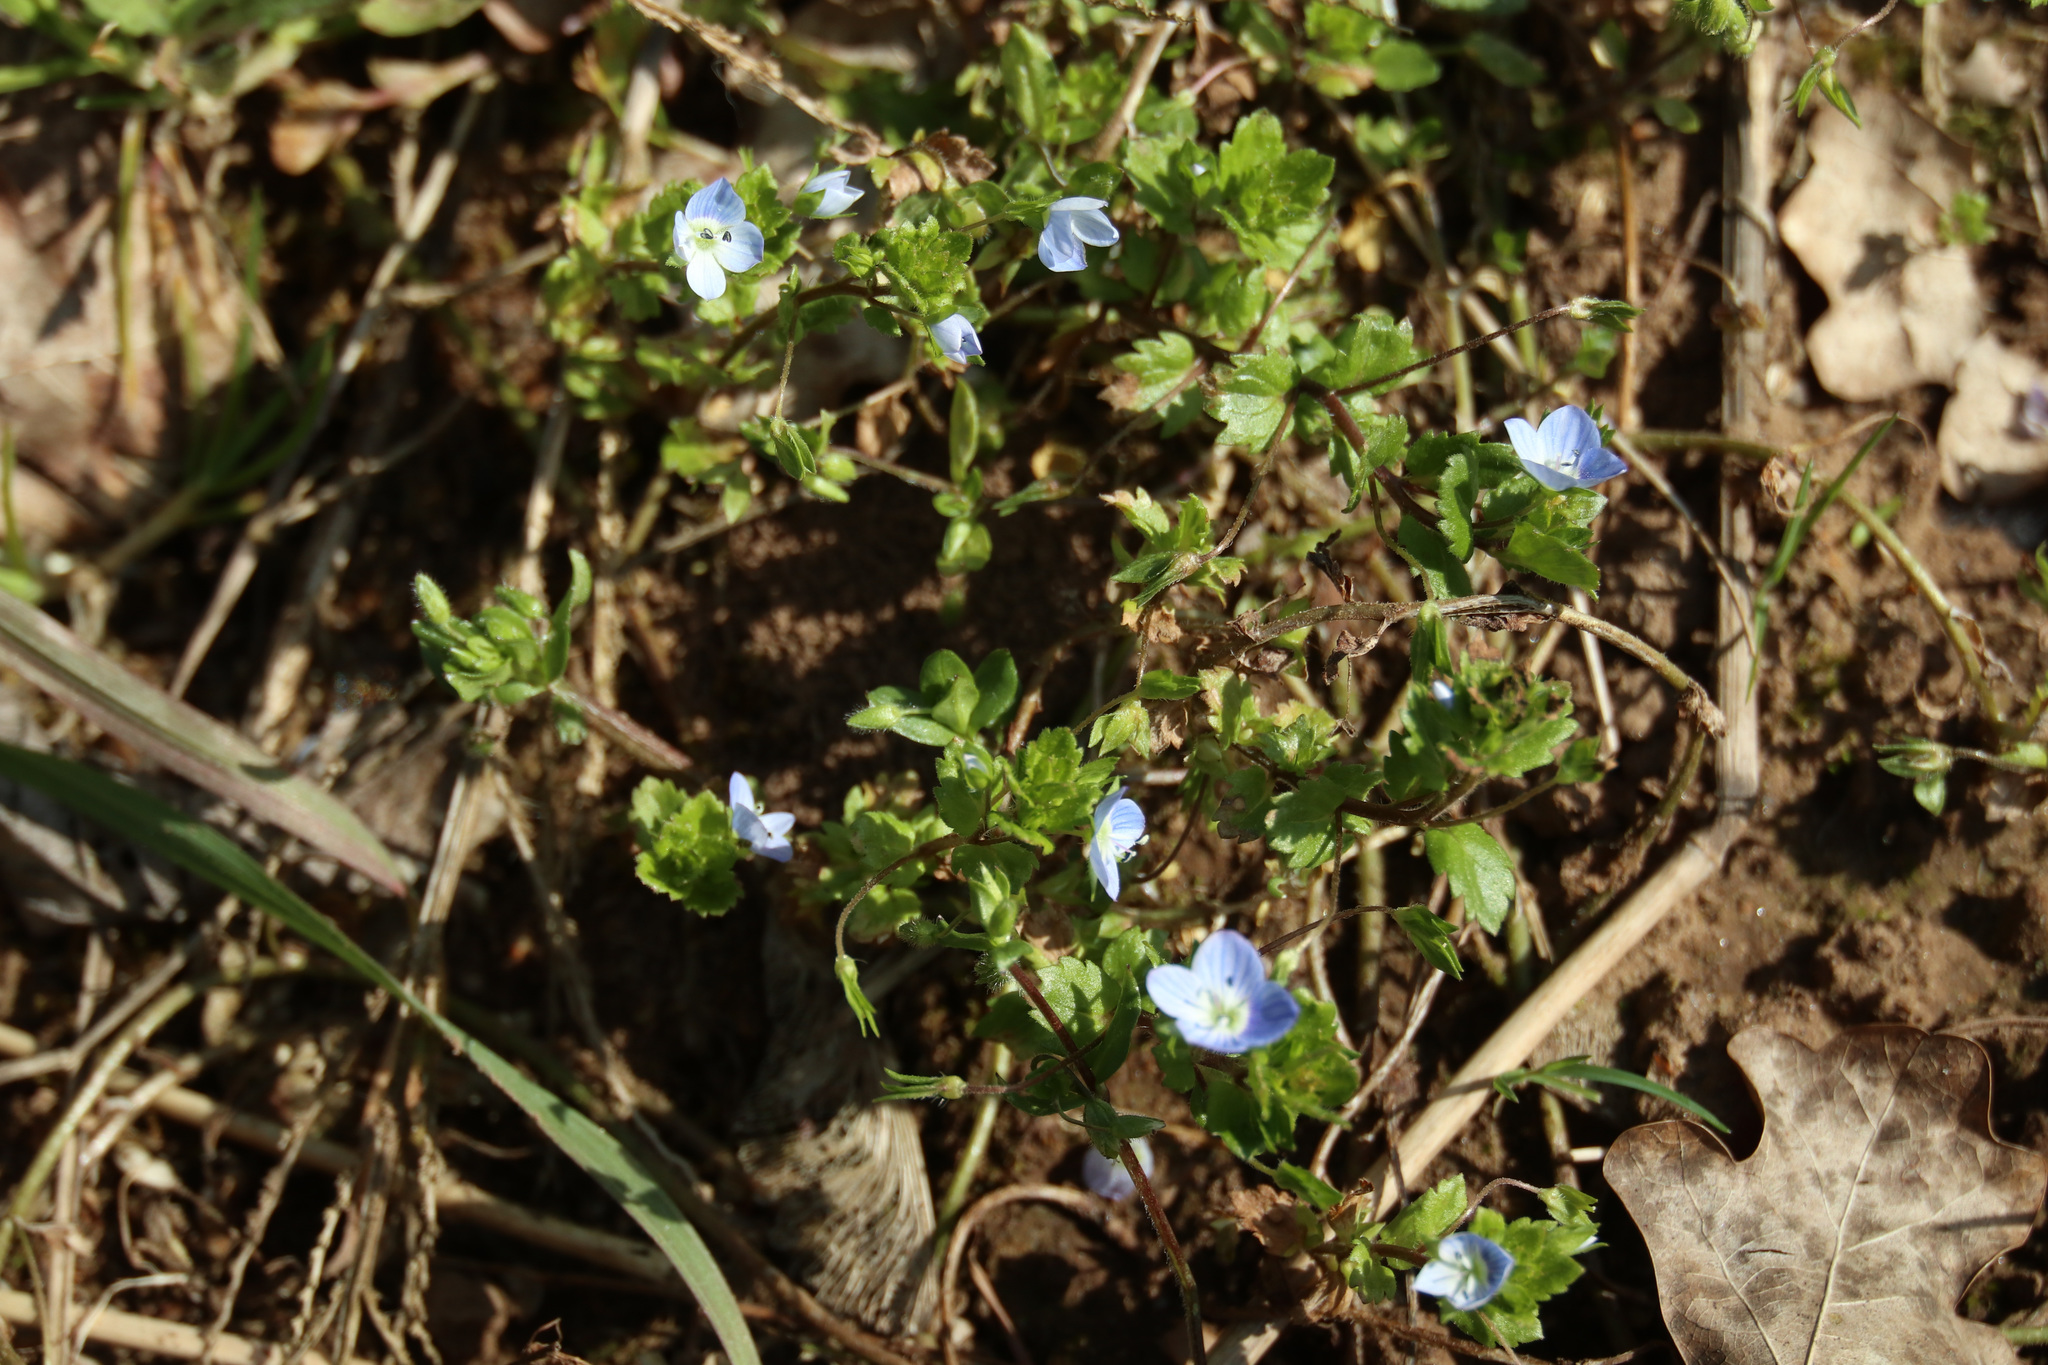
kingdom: Plantae
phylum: Tracheophyta
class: Magnoliopsida
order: Lamiales
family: Plantaginaceae
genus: Veronica
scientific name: Veronica persica
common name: Common field-speedwell
